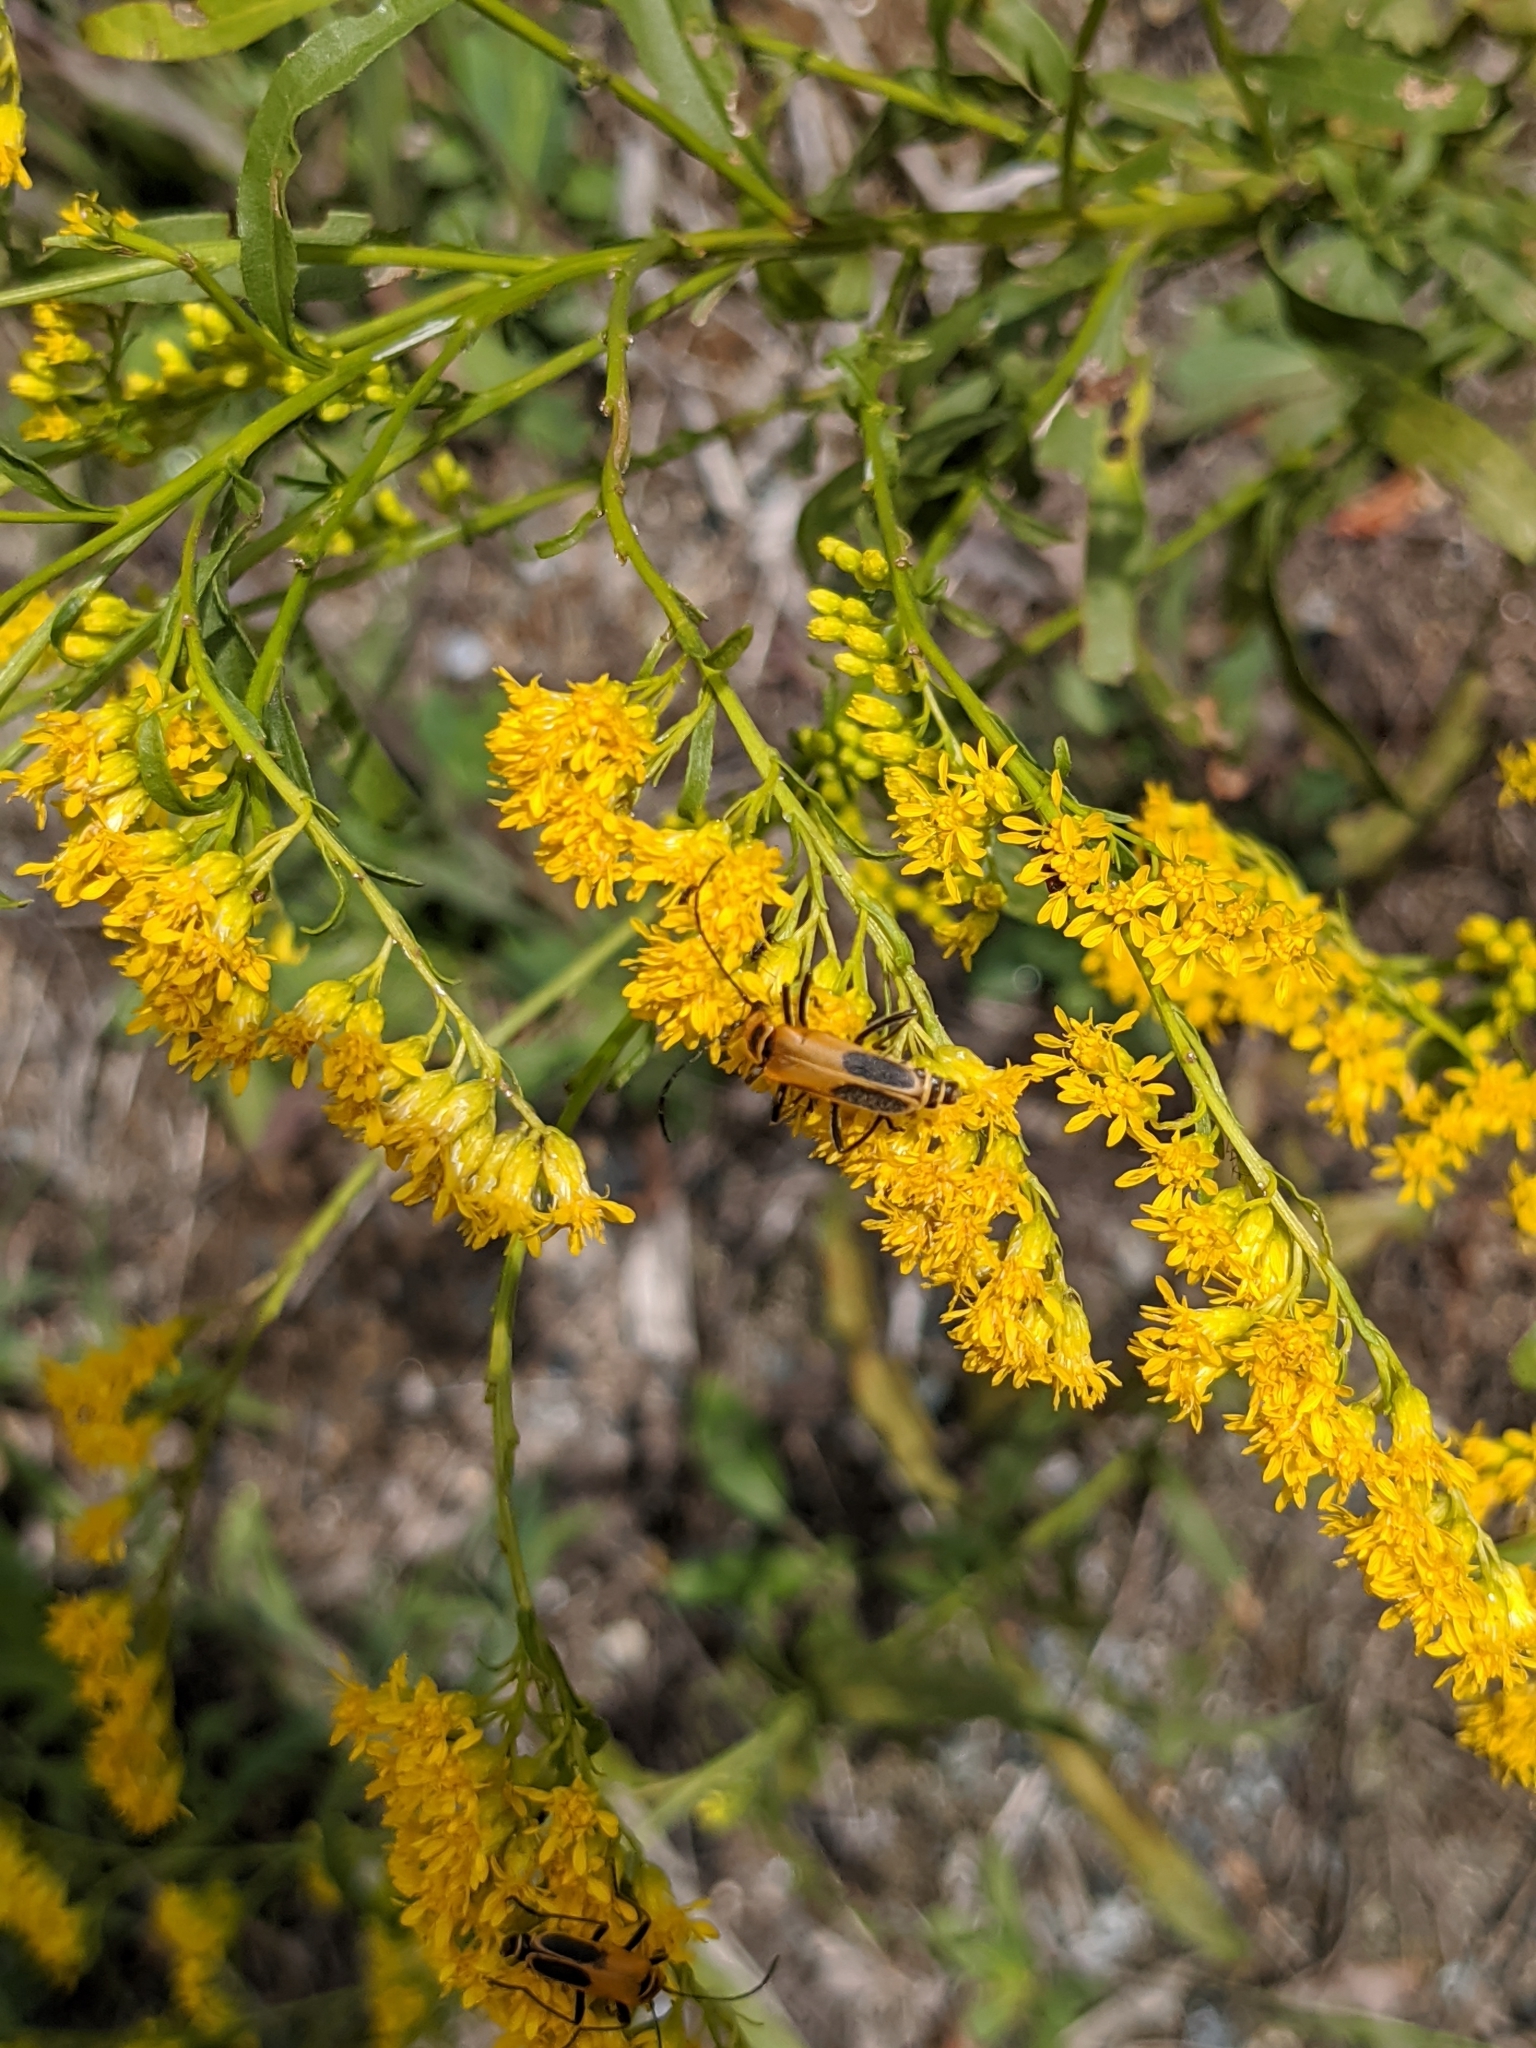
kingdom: Animalia
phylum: Arthropoda
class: Insecta
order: Coleoptera
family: Cantharidae
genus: Chauliognathus
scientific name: Chauliognathus pensylvanicus
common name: Goldenrod soldier beetle
